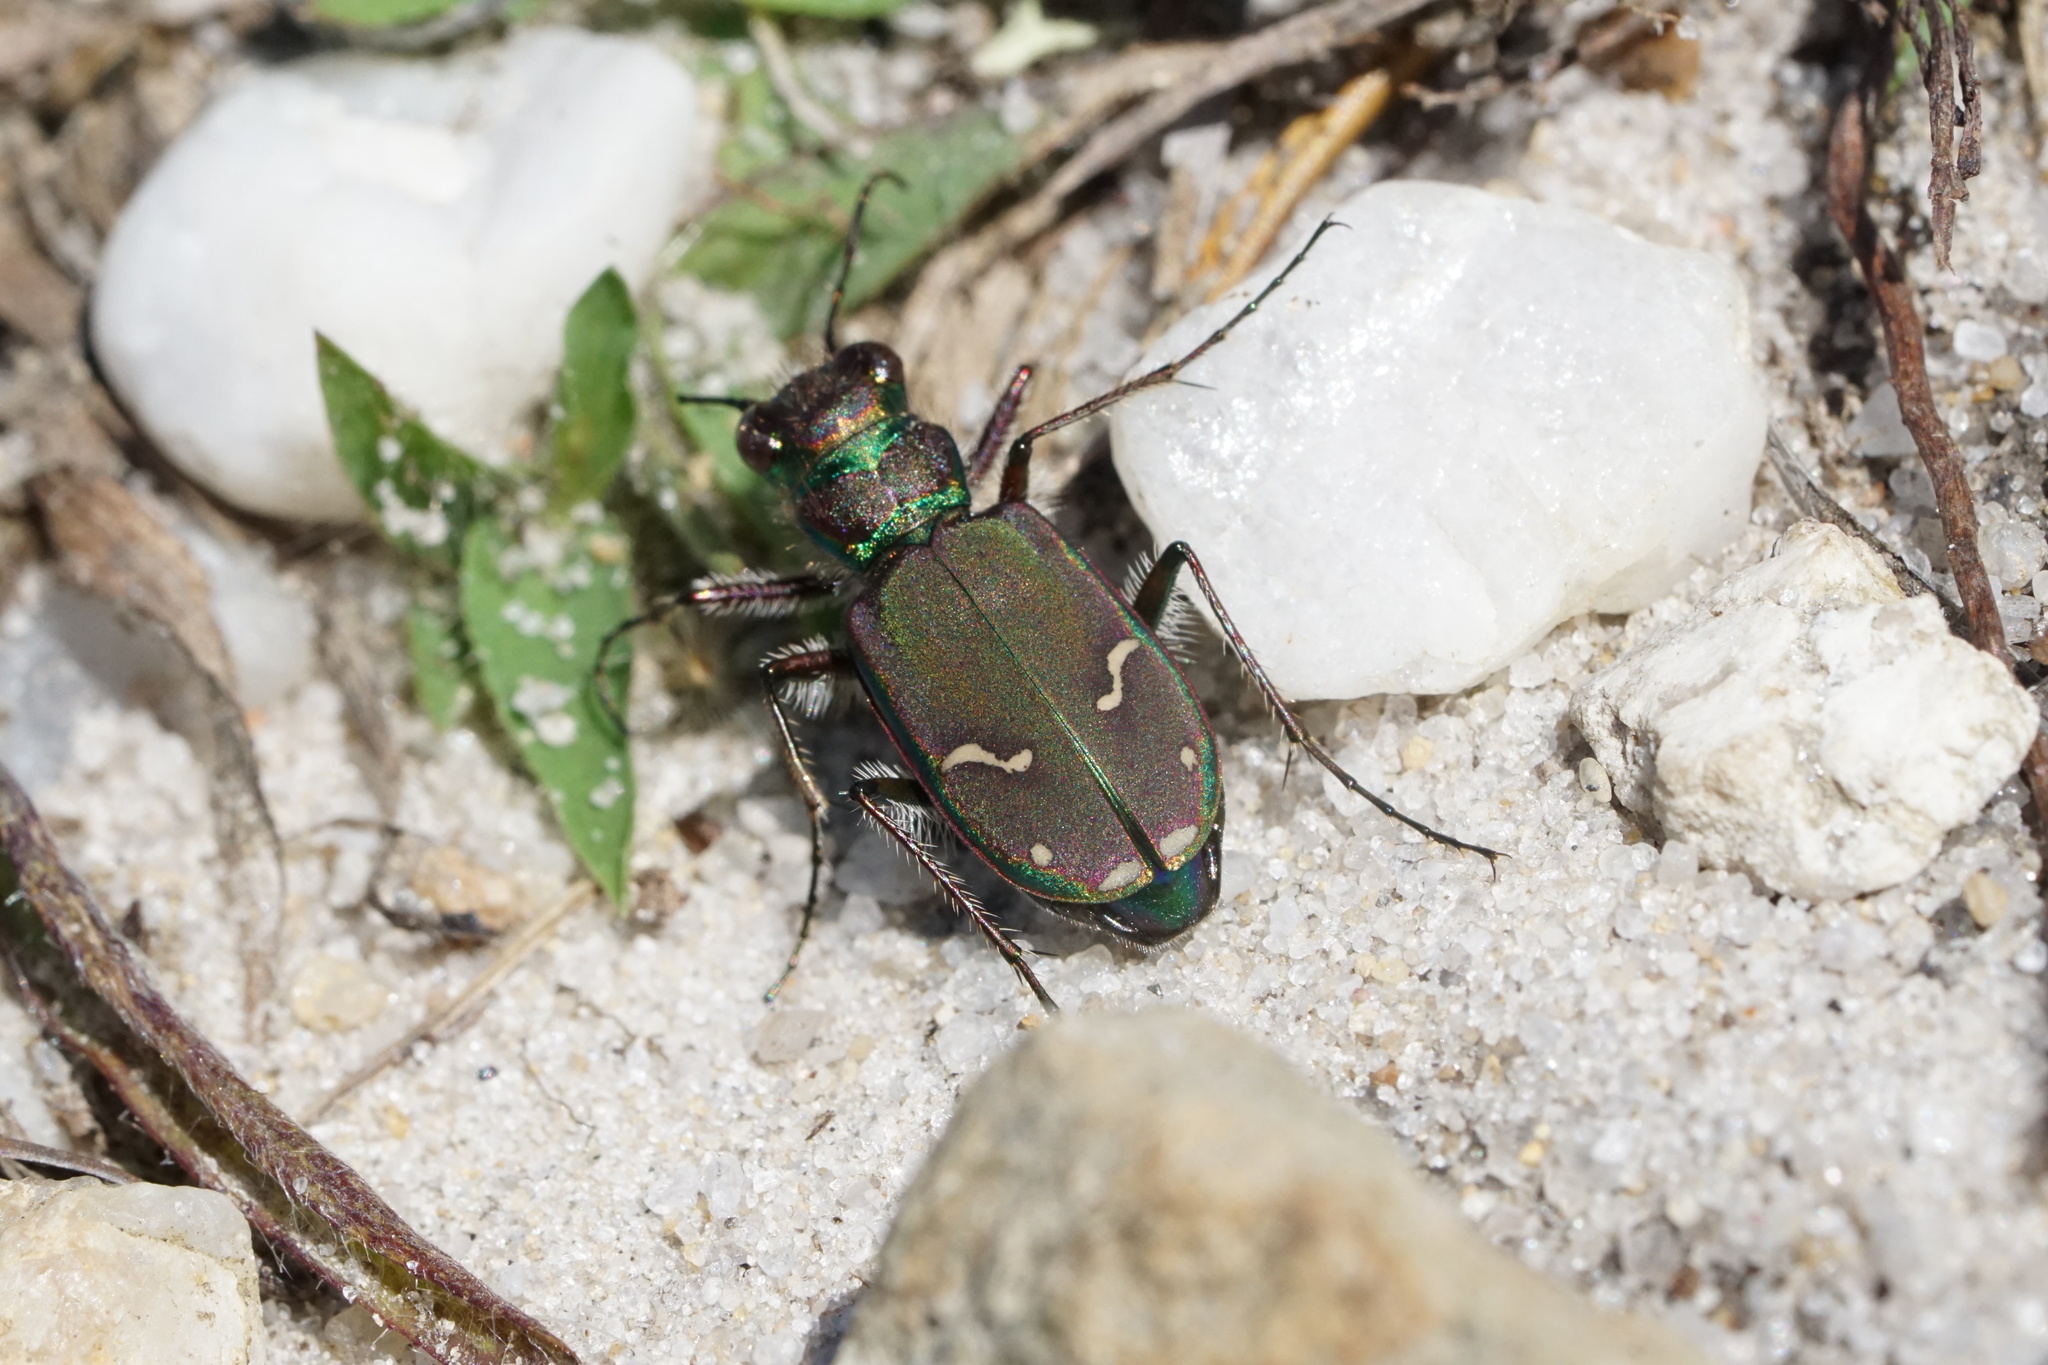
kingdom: Animalia
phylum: Arthropoda
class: Insecta
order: Coleoptera
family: Carabidae
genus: Cicindela
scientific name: Cicindela purpurea
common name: Cow path tiger beetle
